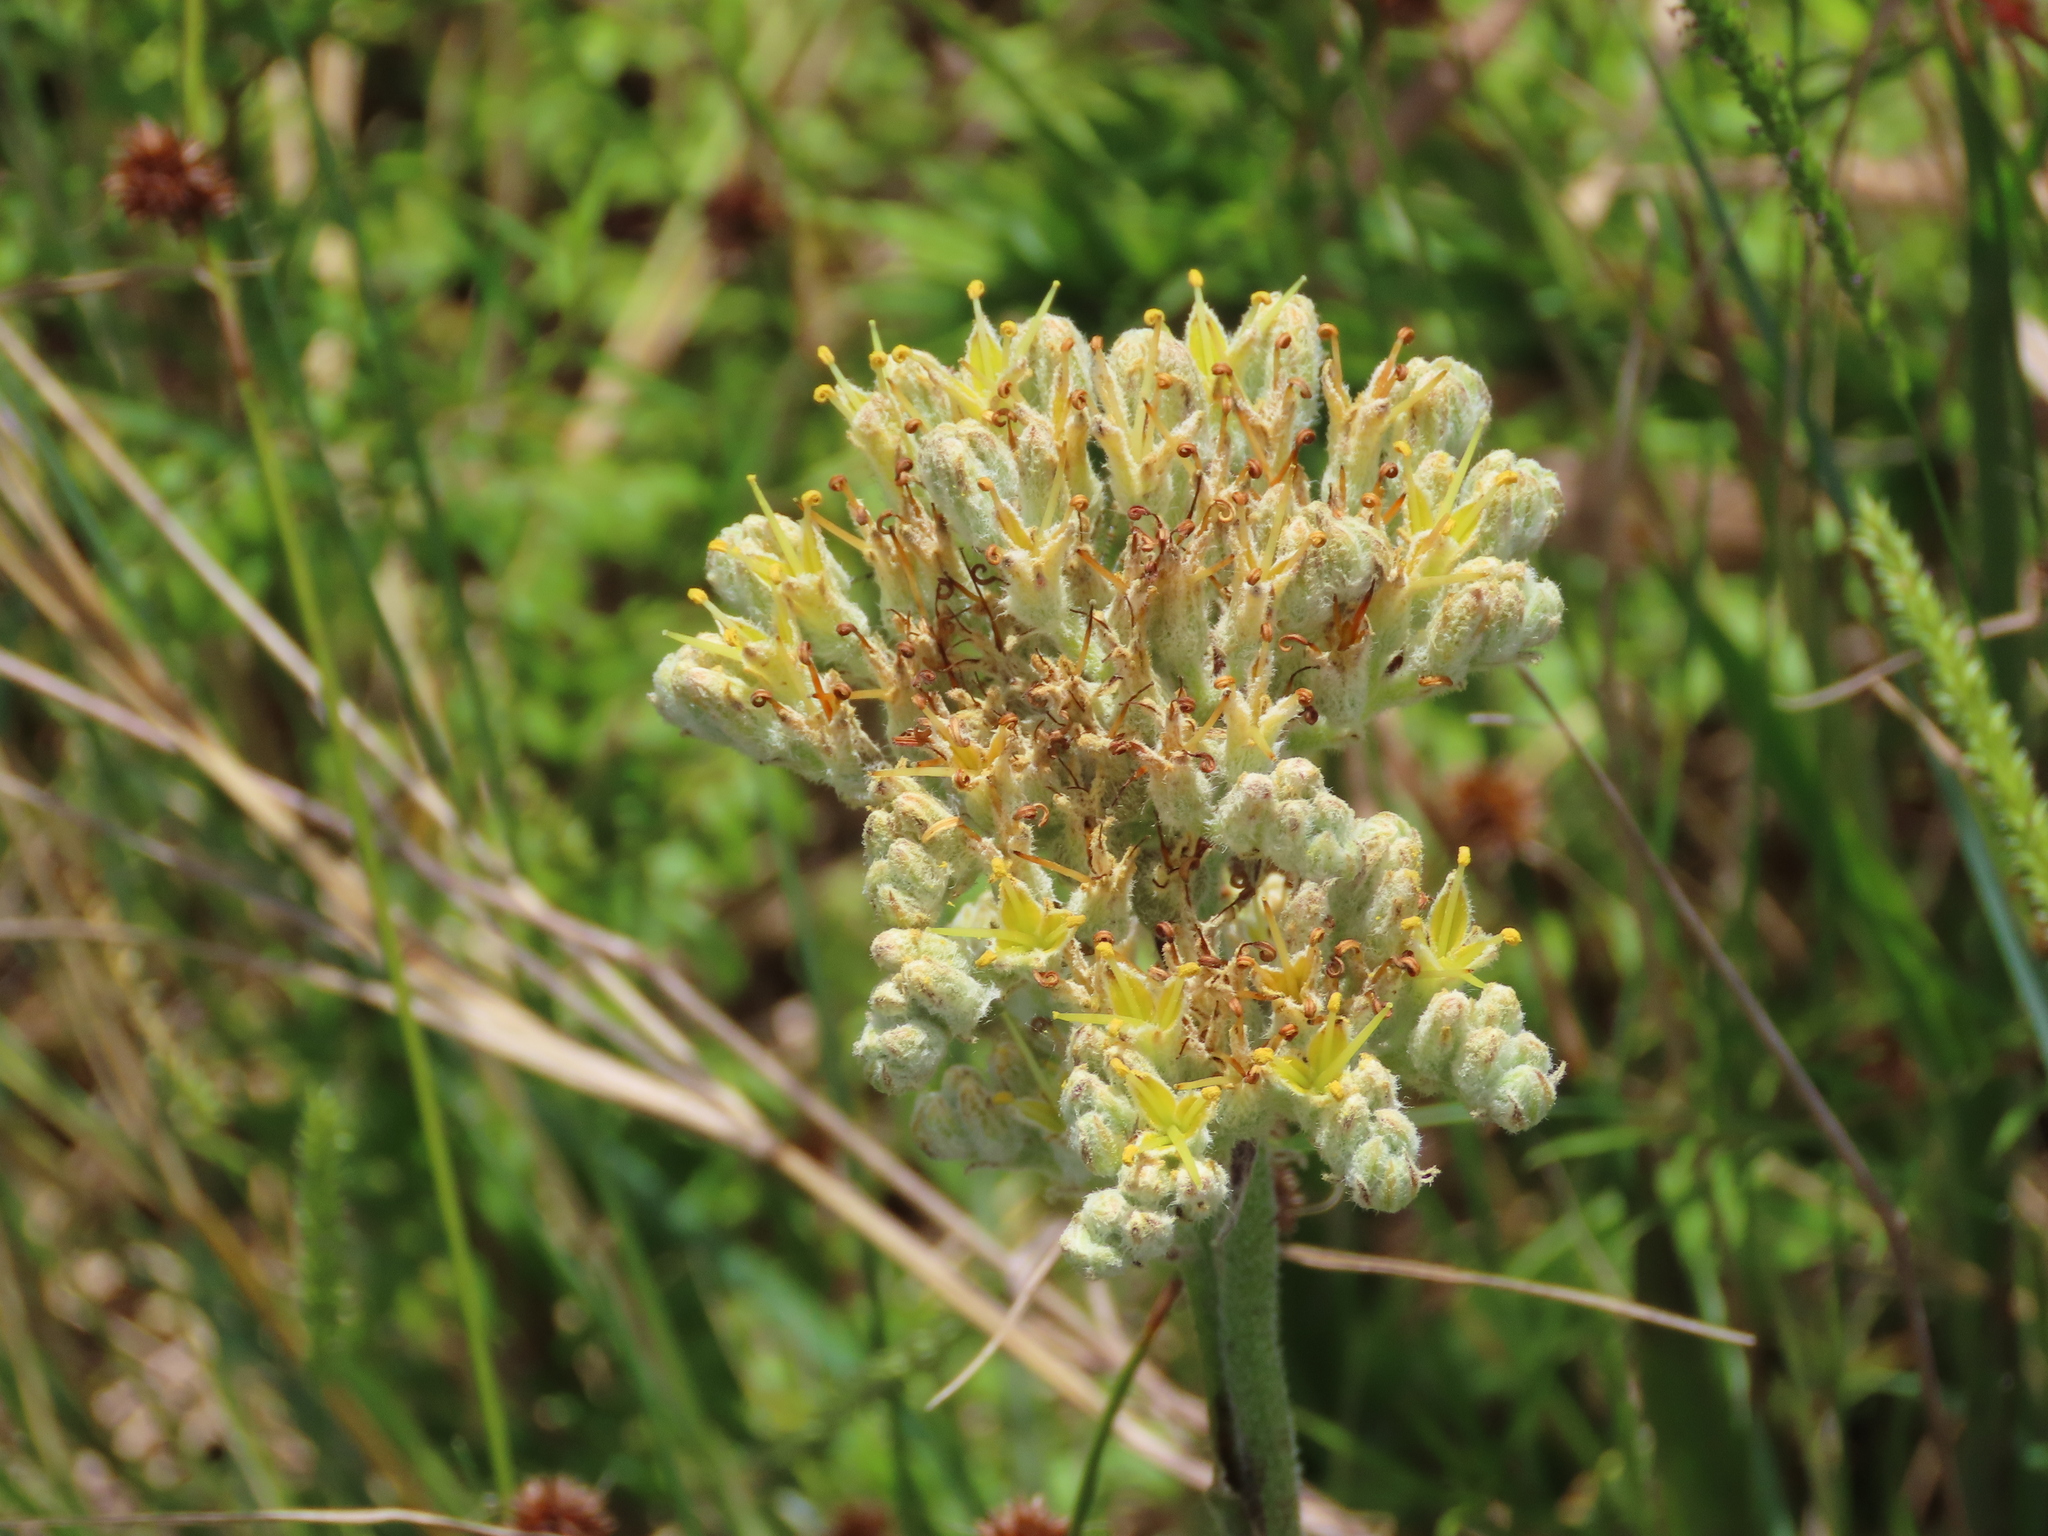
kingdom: Plantae
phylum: Tracheophyta
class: Liliopsida
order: Commelinales
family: Haemodoraceae
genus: Lachnanthes
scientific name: Lachnanthes caroliana
